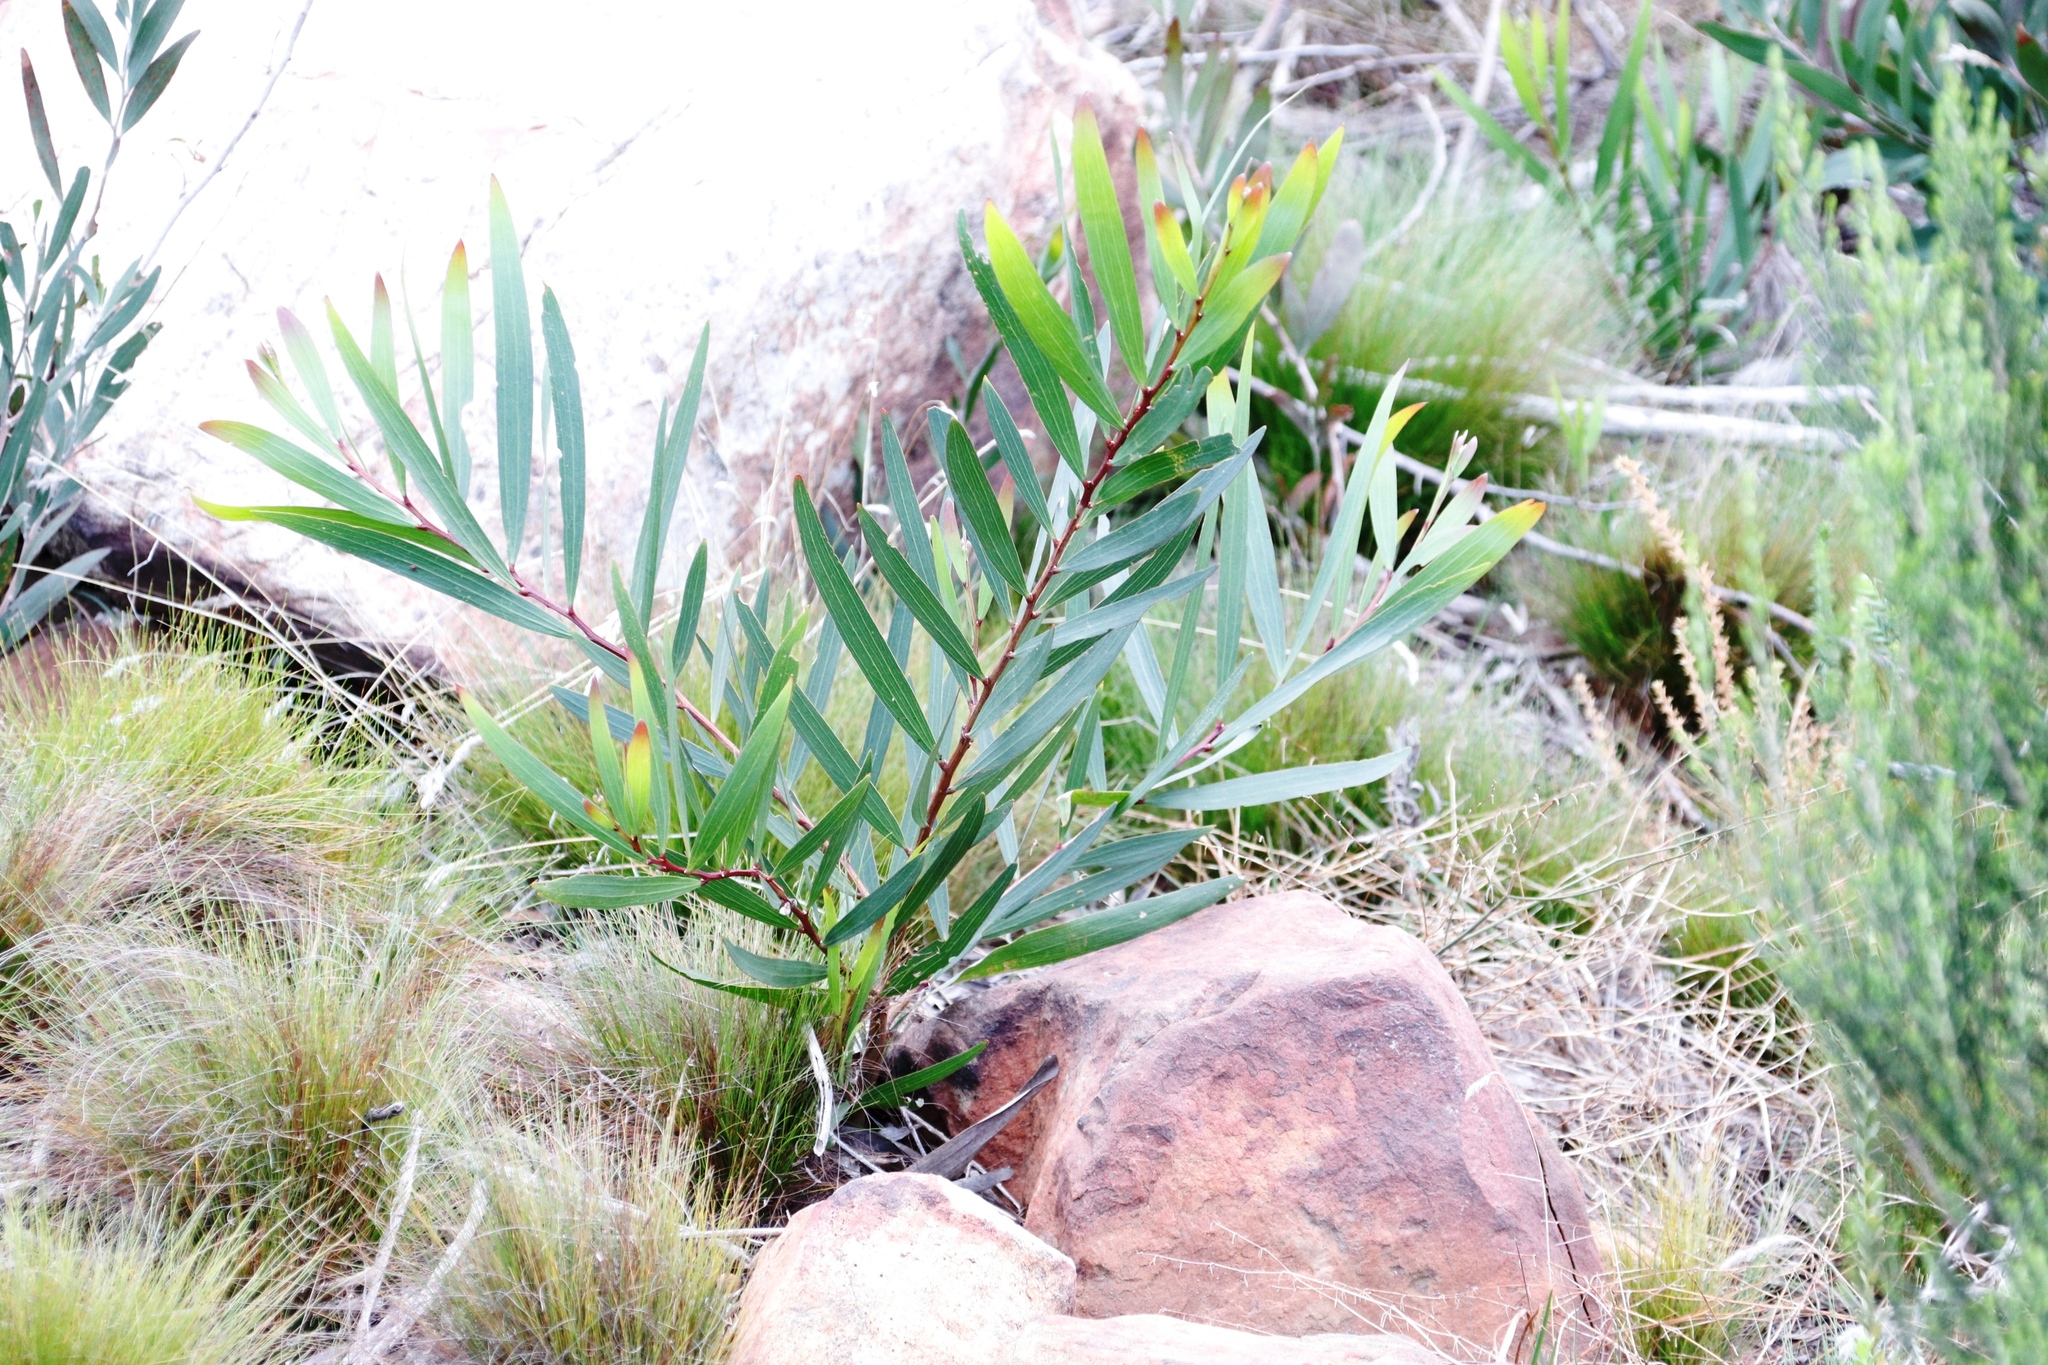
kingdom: Plantae
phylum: Tracheophyta
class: Magnoliopsida
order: Fabales
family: Fabaceae
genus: Acacia
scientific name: Acacia longifolia
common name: Sydney golden wattle
